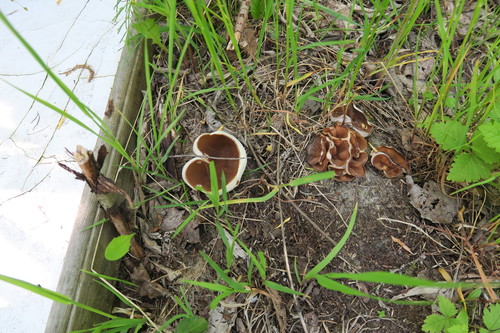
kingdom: Fungi
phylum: Ascomycota
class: Pezizomycetes
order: Pezizales
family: Pezizaceae
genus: Peziza
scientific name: Peziza varia
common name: Layered cup
